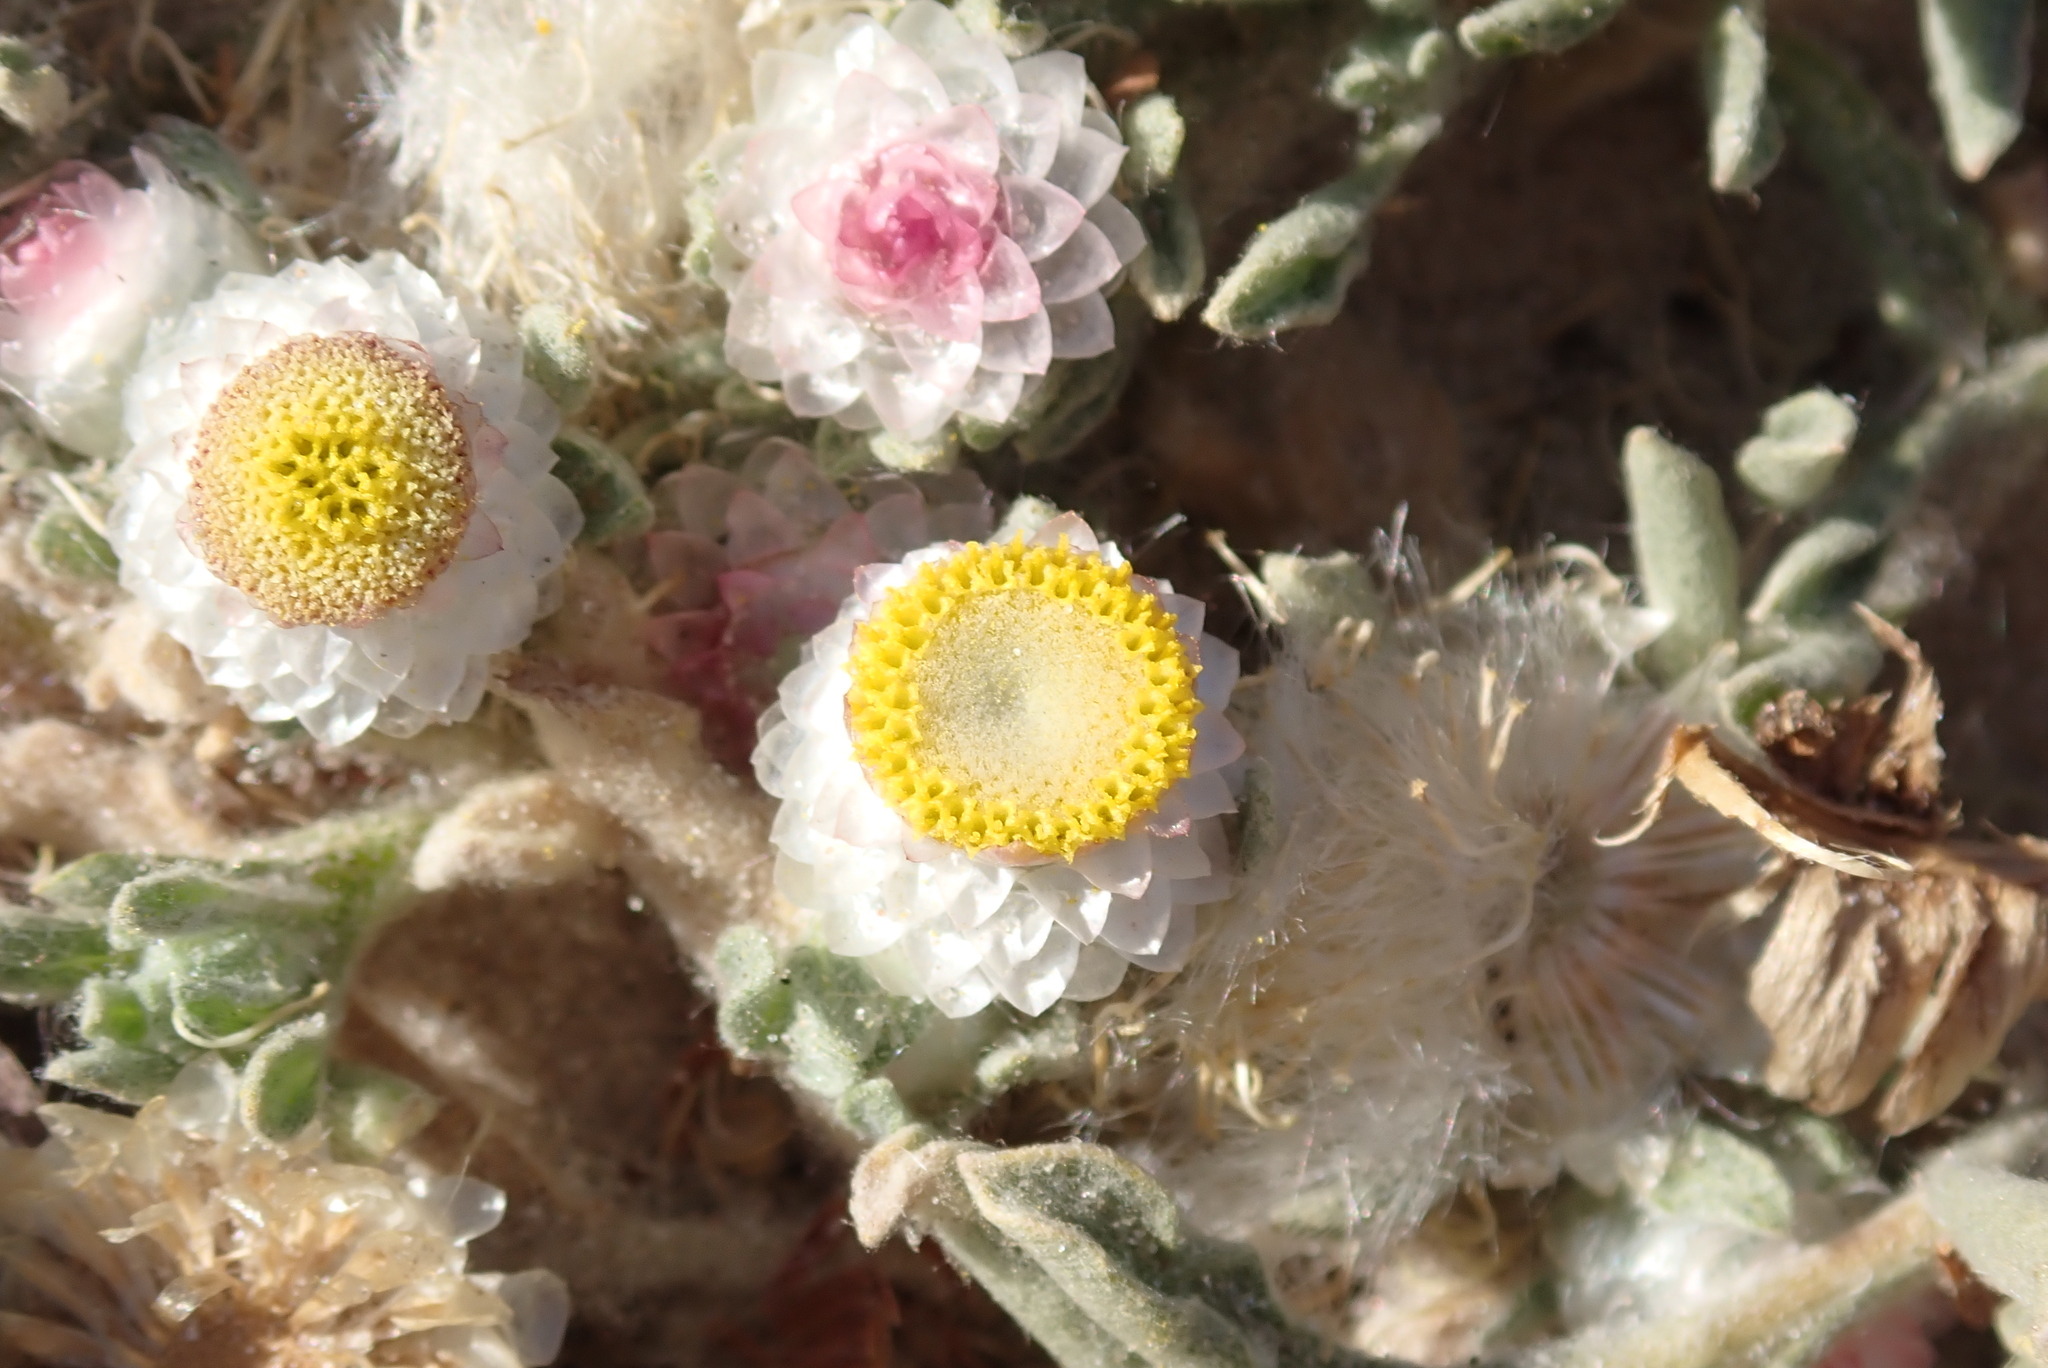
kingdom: Plantae
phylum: Tracheophyta
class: Magnoliopsida
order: Asterales
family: Asteraceae
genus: Helichrysum
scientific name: Helichrysum argyrosphaerum
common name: Wild everlasting
